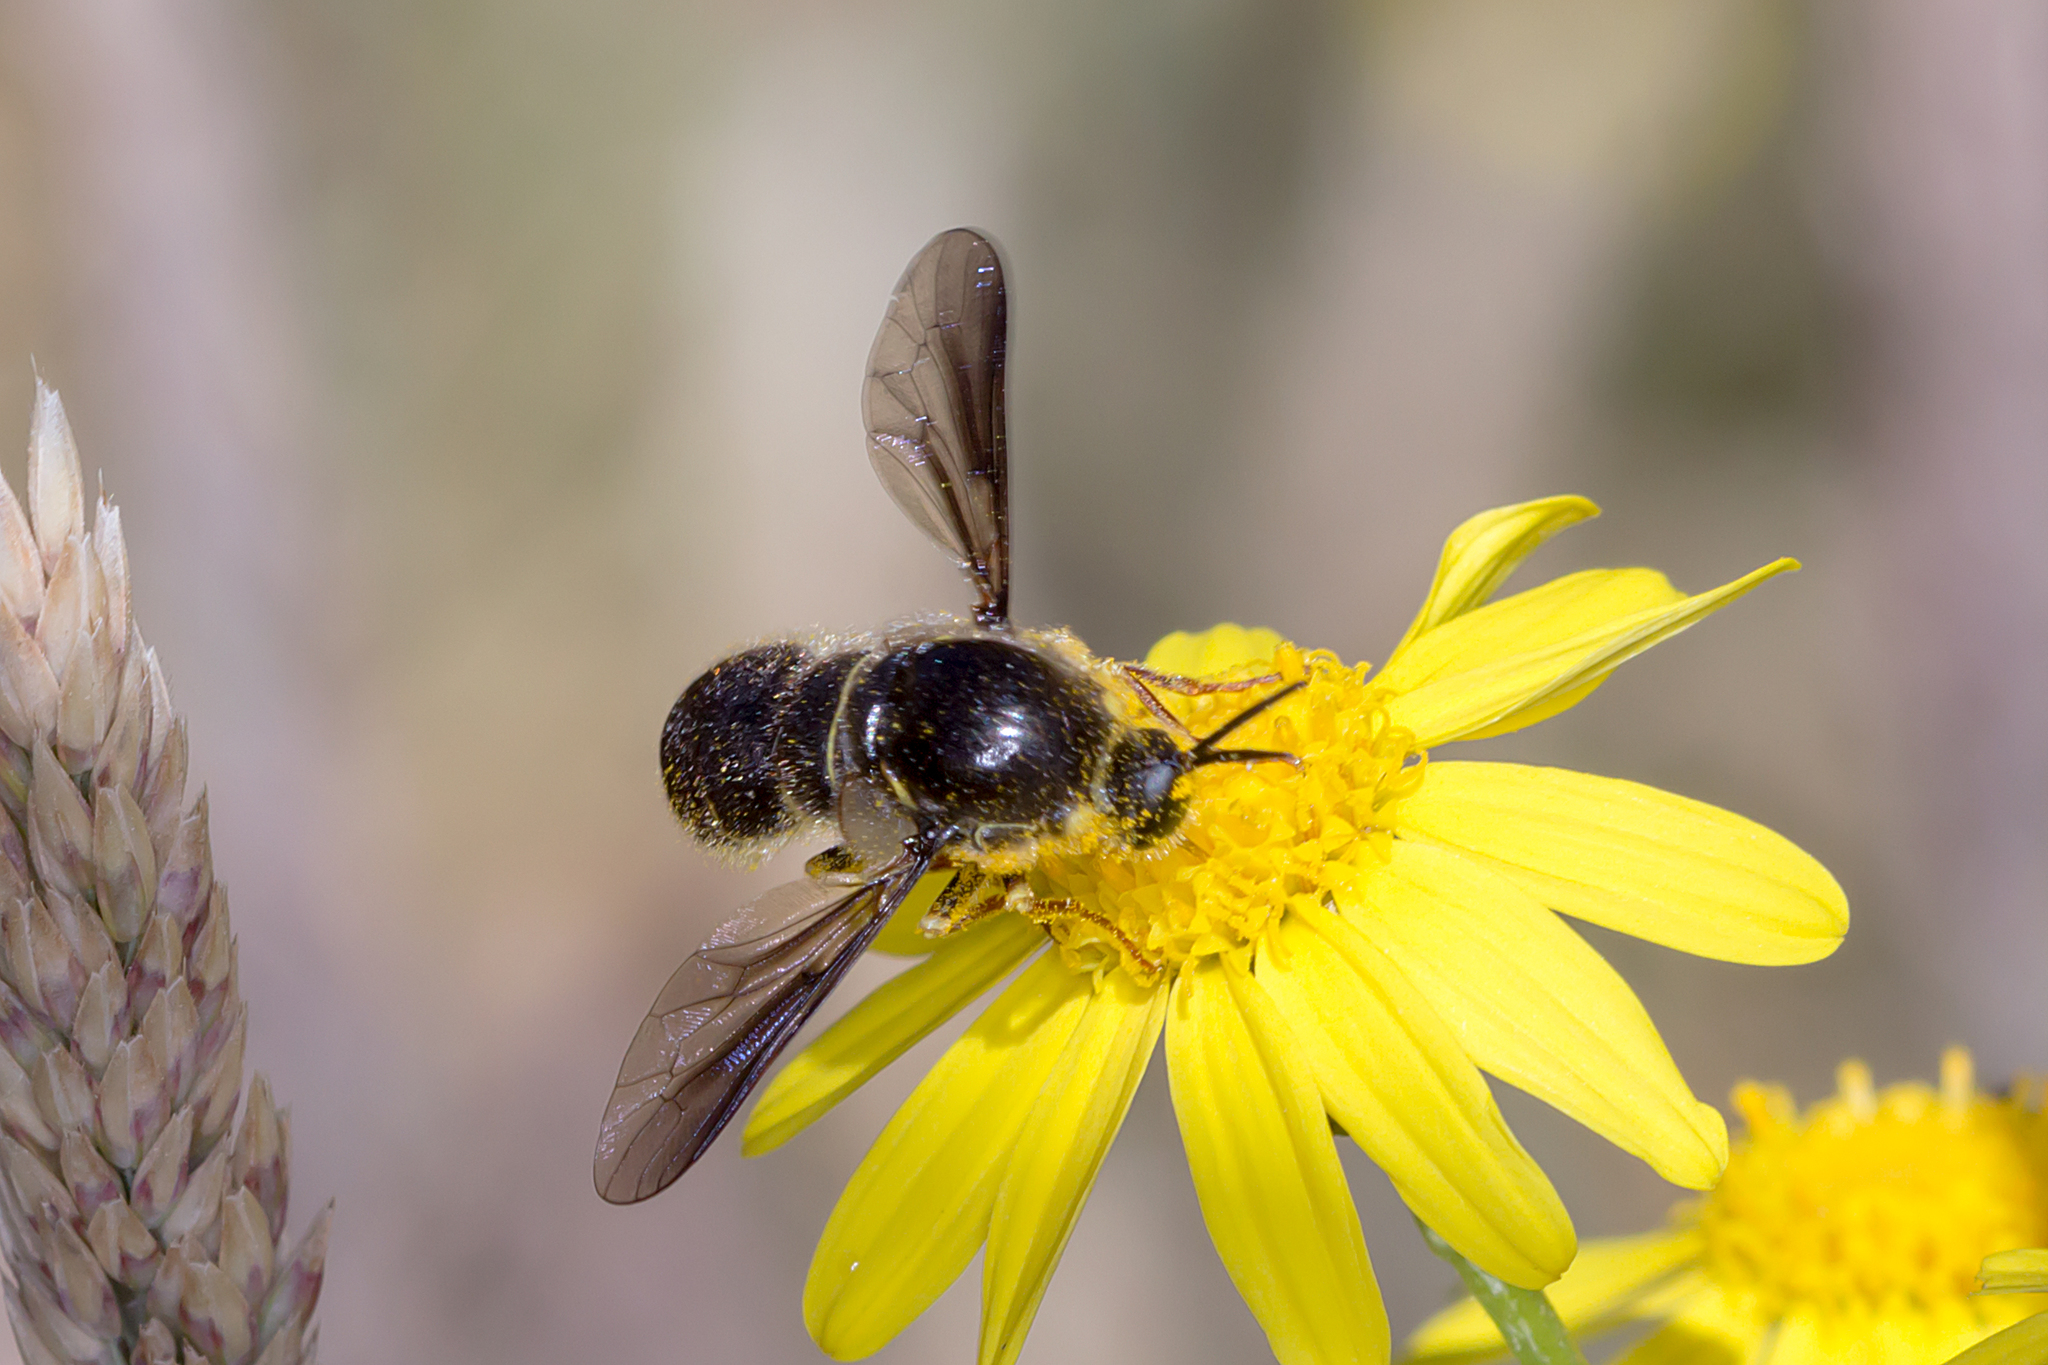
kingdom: Animalia
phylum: Arthropoda
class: Insecta
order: Diptera
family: Acroceridae
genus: Leucopsina
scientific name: Leucopsina burnsi
